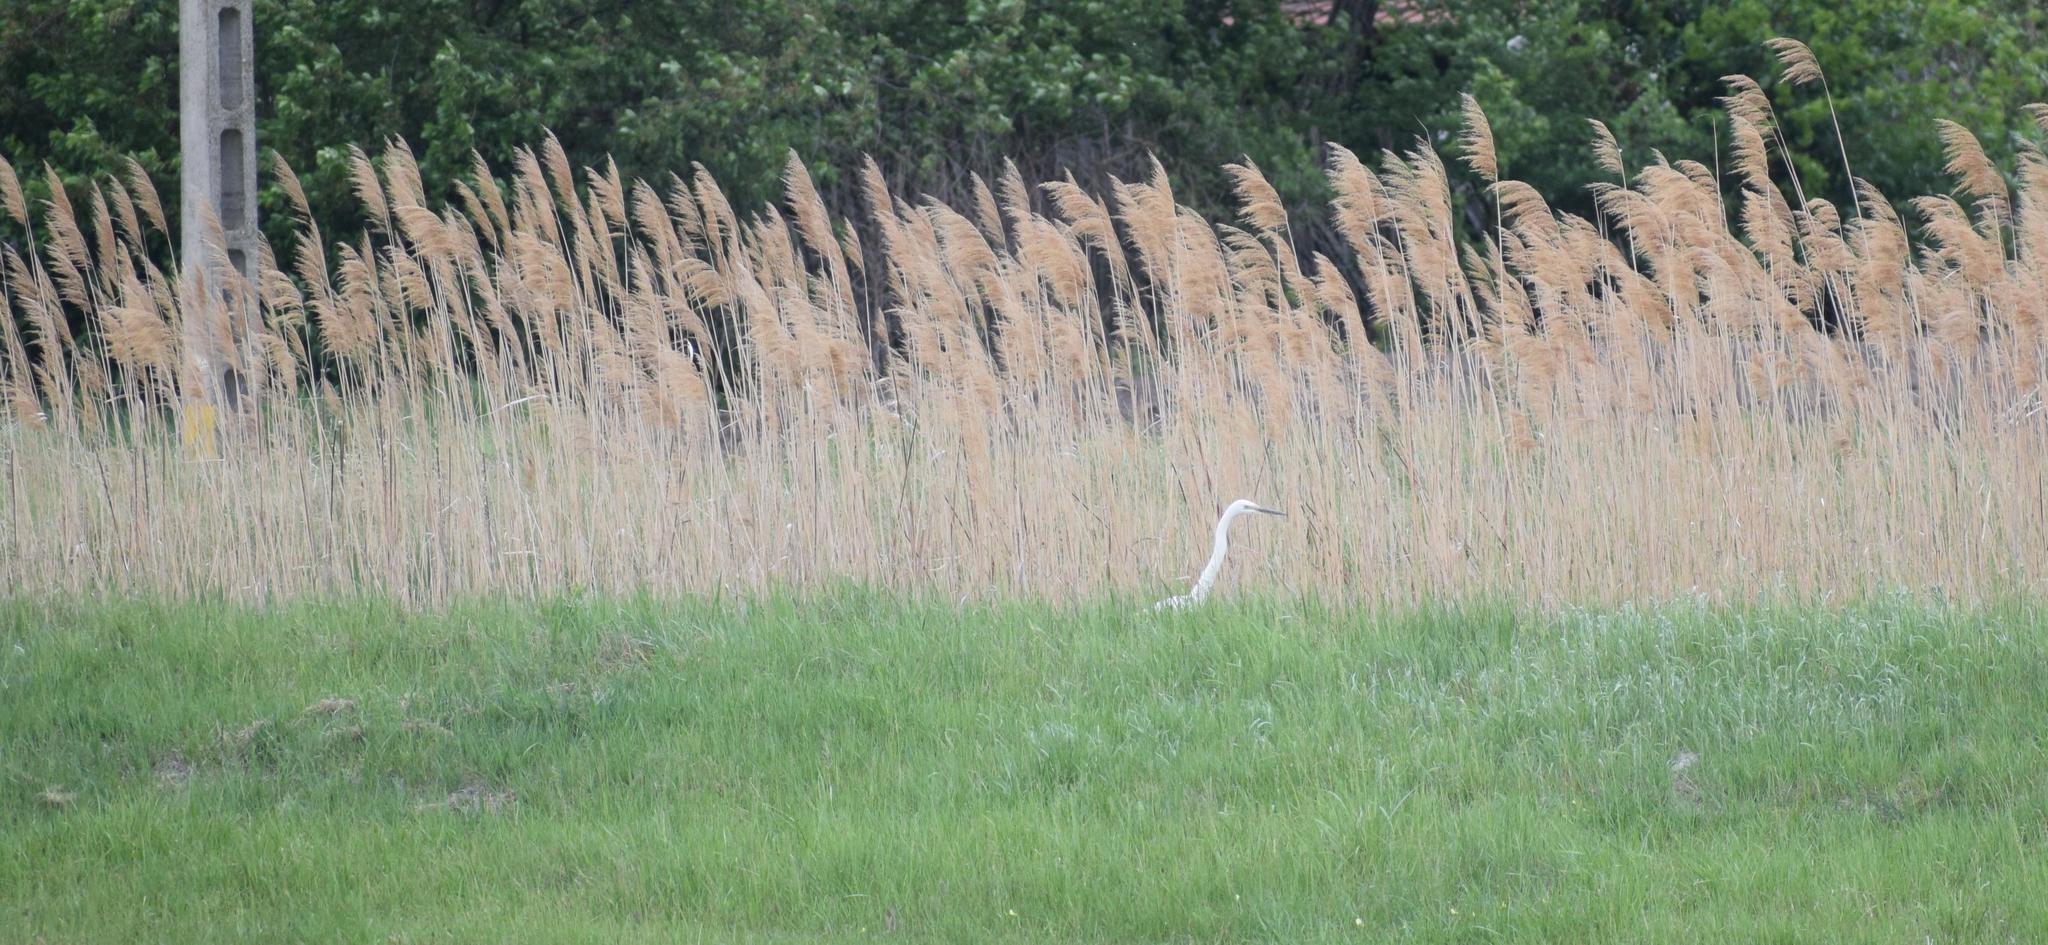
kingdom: Animalia
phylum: Chordata
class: Aves
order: Pelecaniformes
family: Ardeidae
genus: Ardea
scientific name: Ardea alba
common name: Great egret
